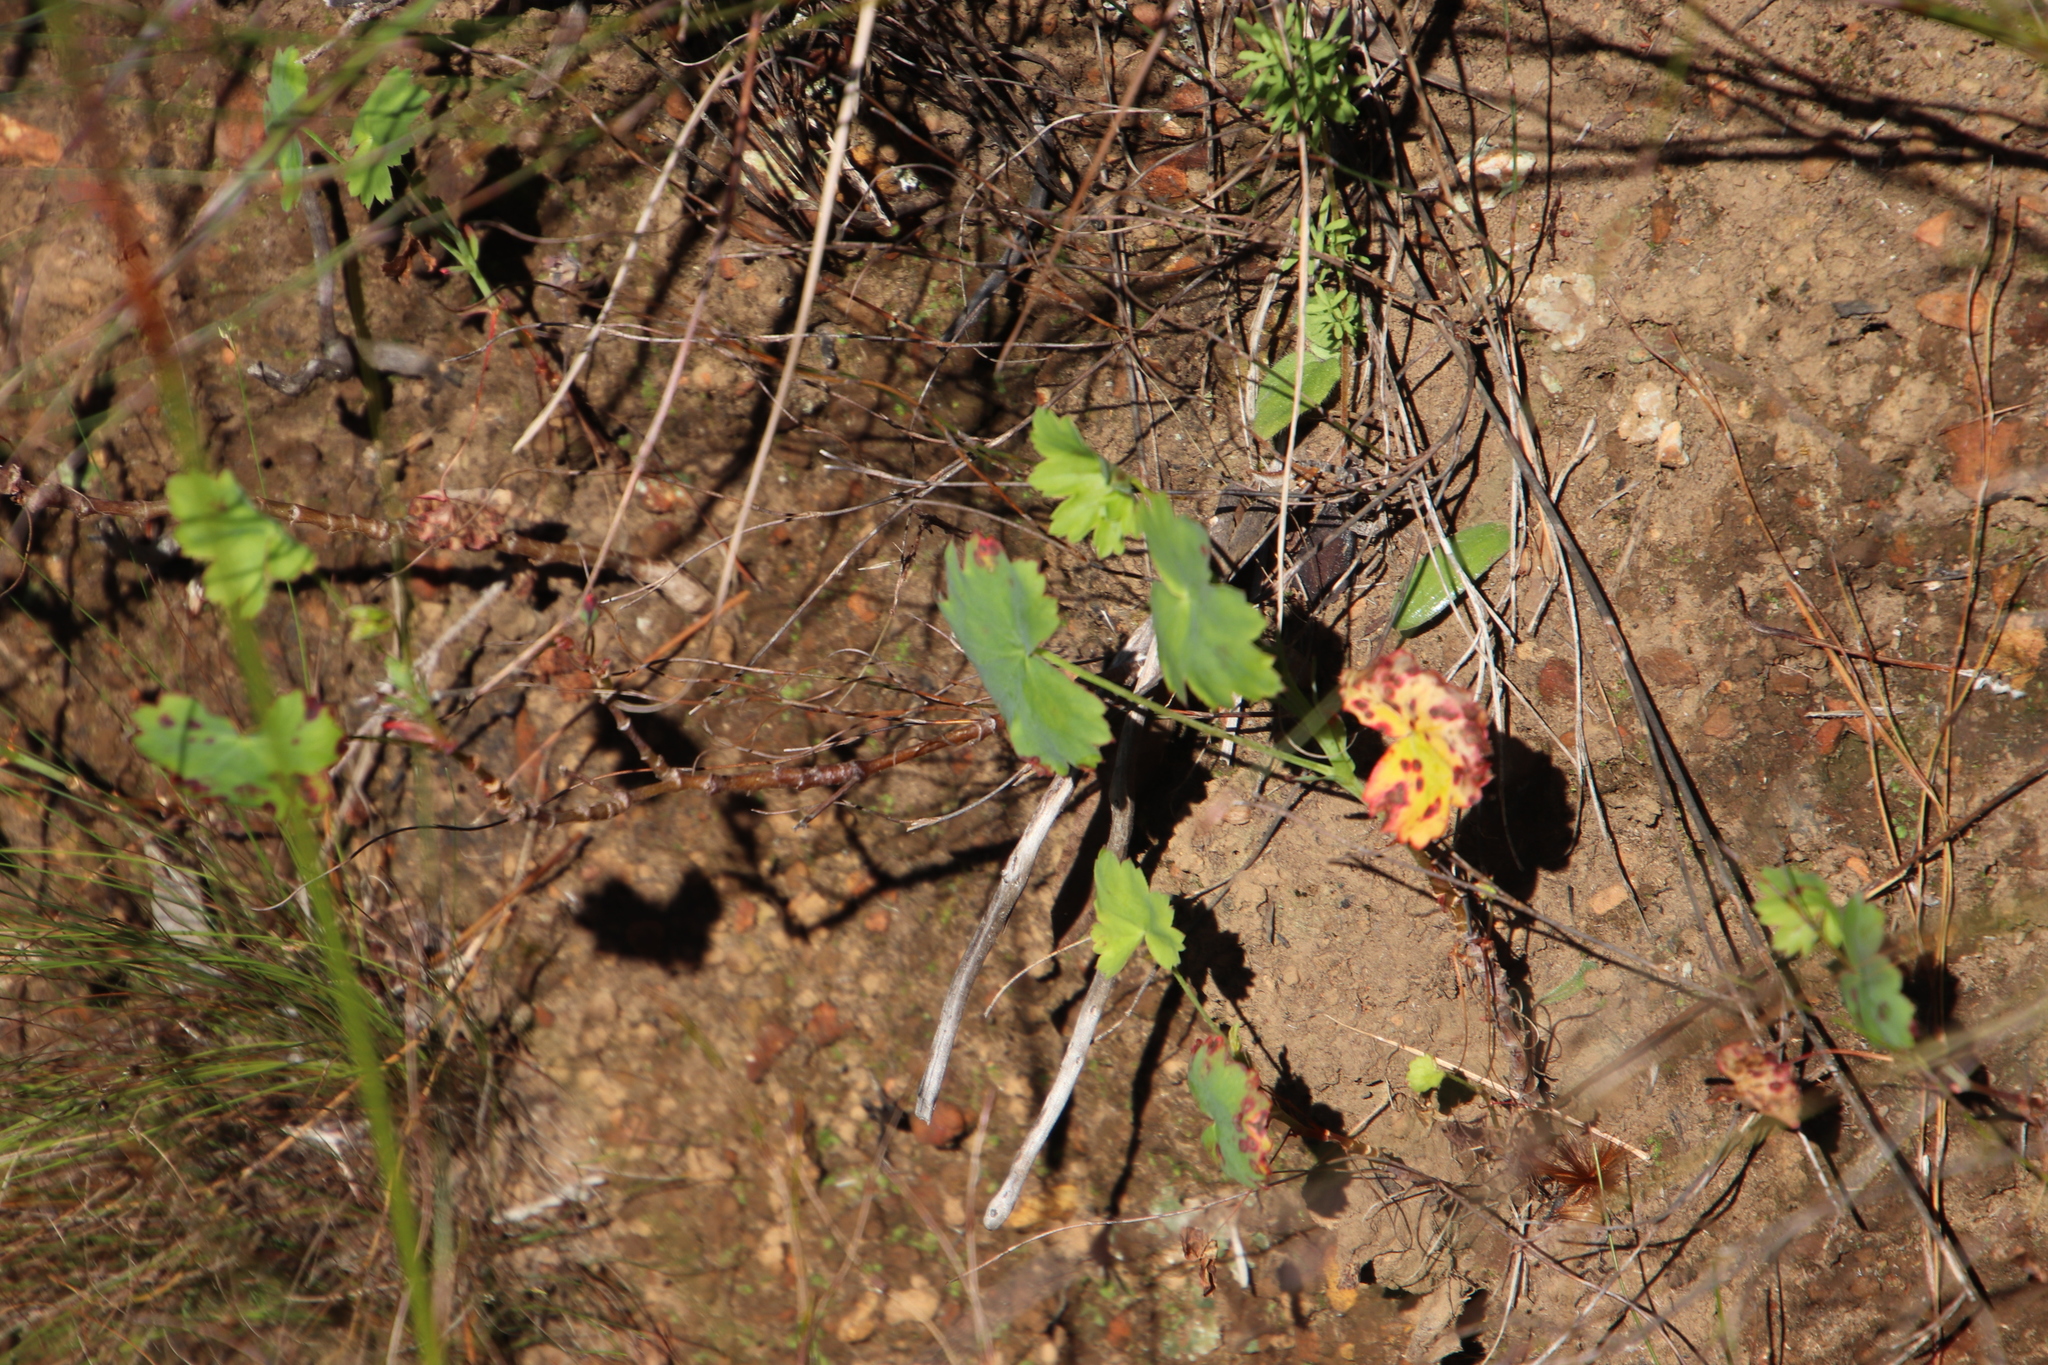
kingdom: Plantae
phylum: Tracheophyta
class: Magnoliopsida
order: Geraniales
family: Geraniaceae
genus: Pelargonium
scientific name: Pelargonium patulum
